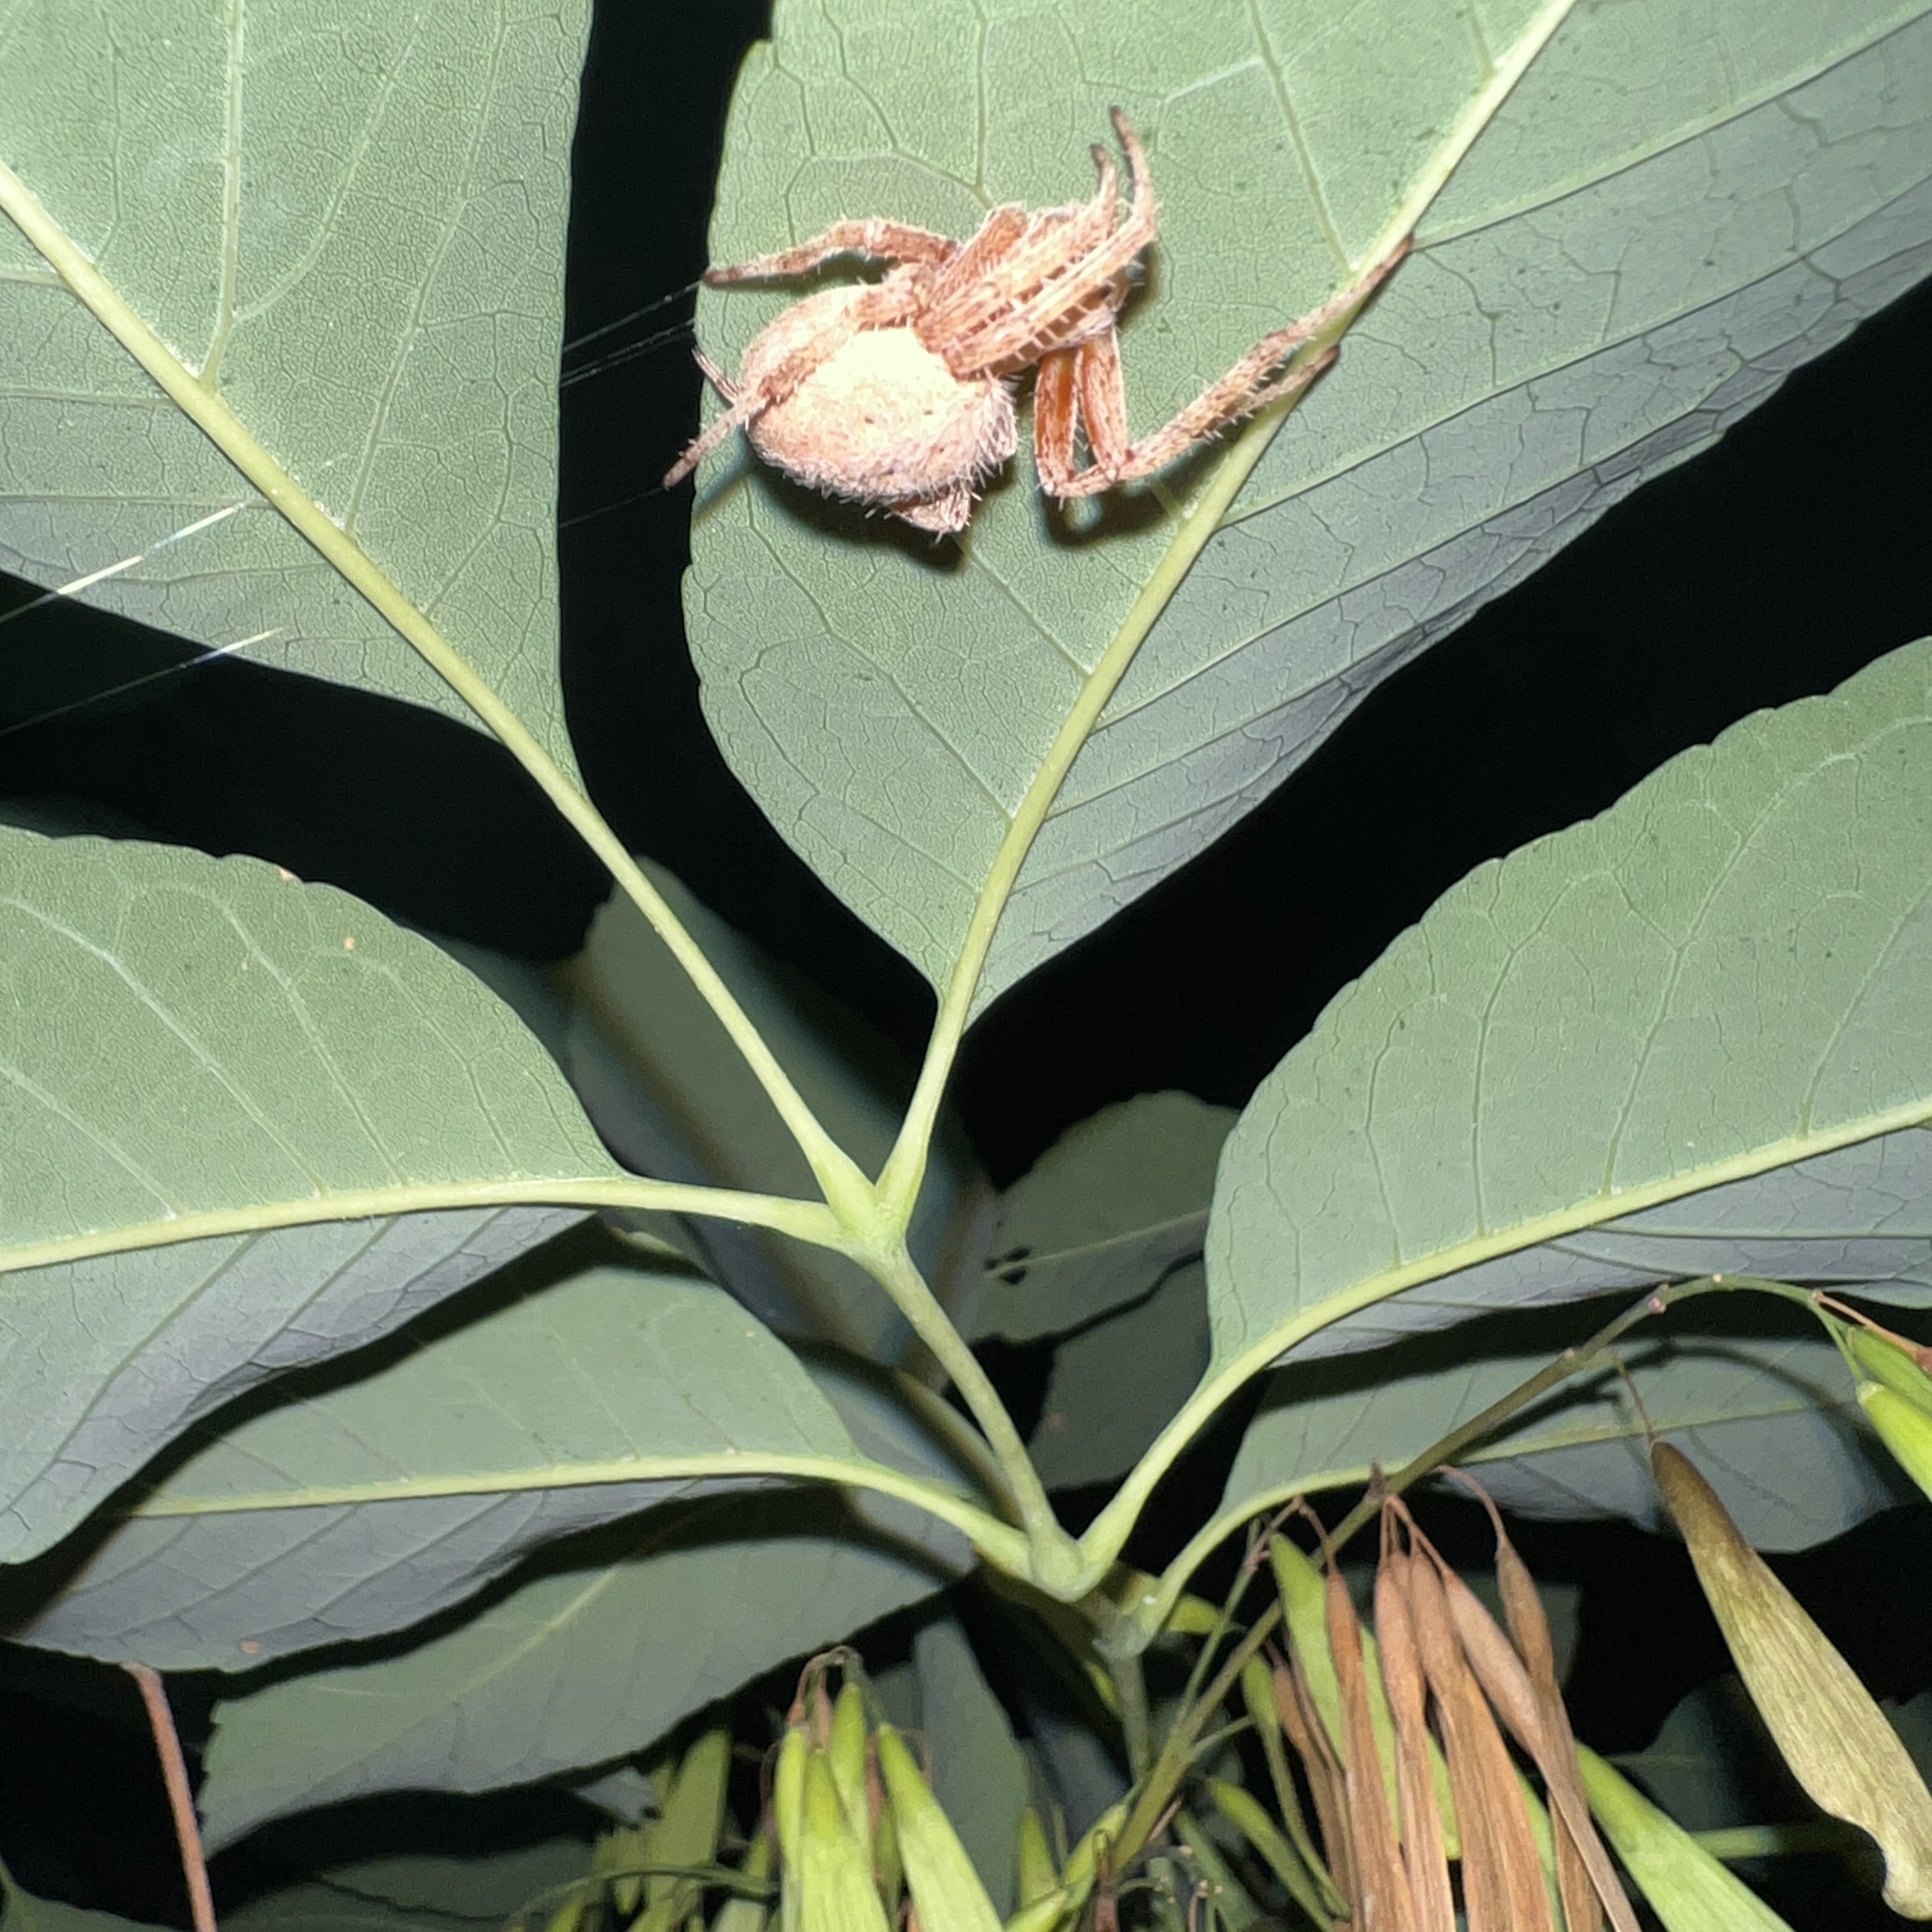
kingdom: Animalia
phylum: Arthropoda
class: Arachnida
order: Araneae
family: Araneidae
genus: Neoscona
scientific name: Neoscona crucifera
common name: Spotted orbweaver
